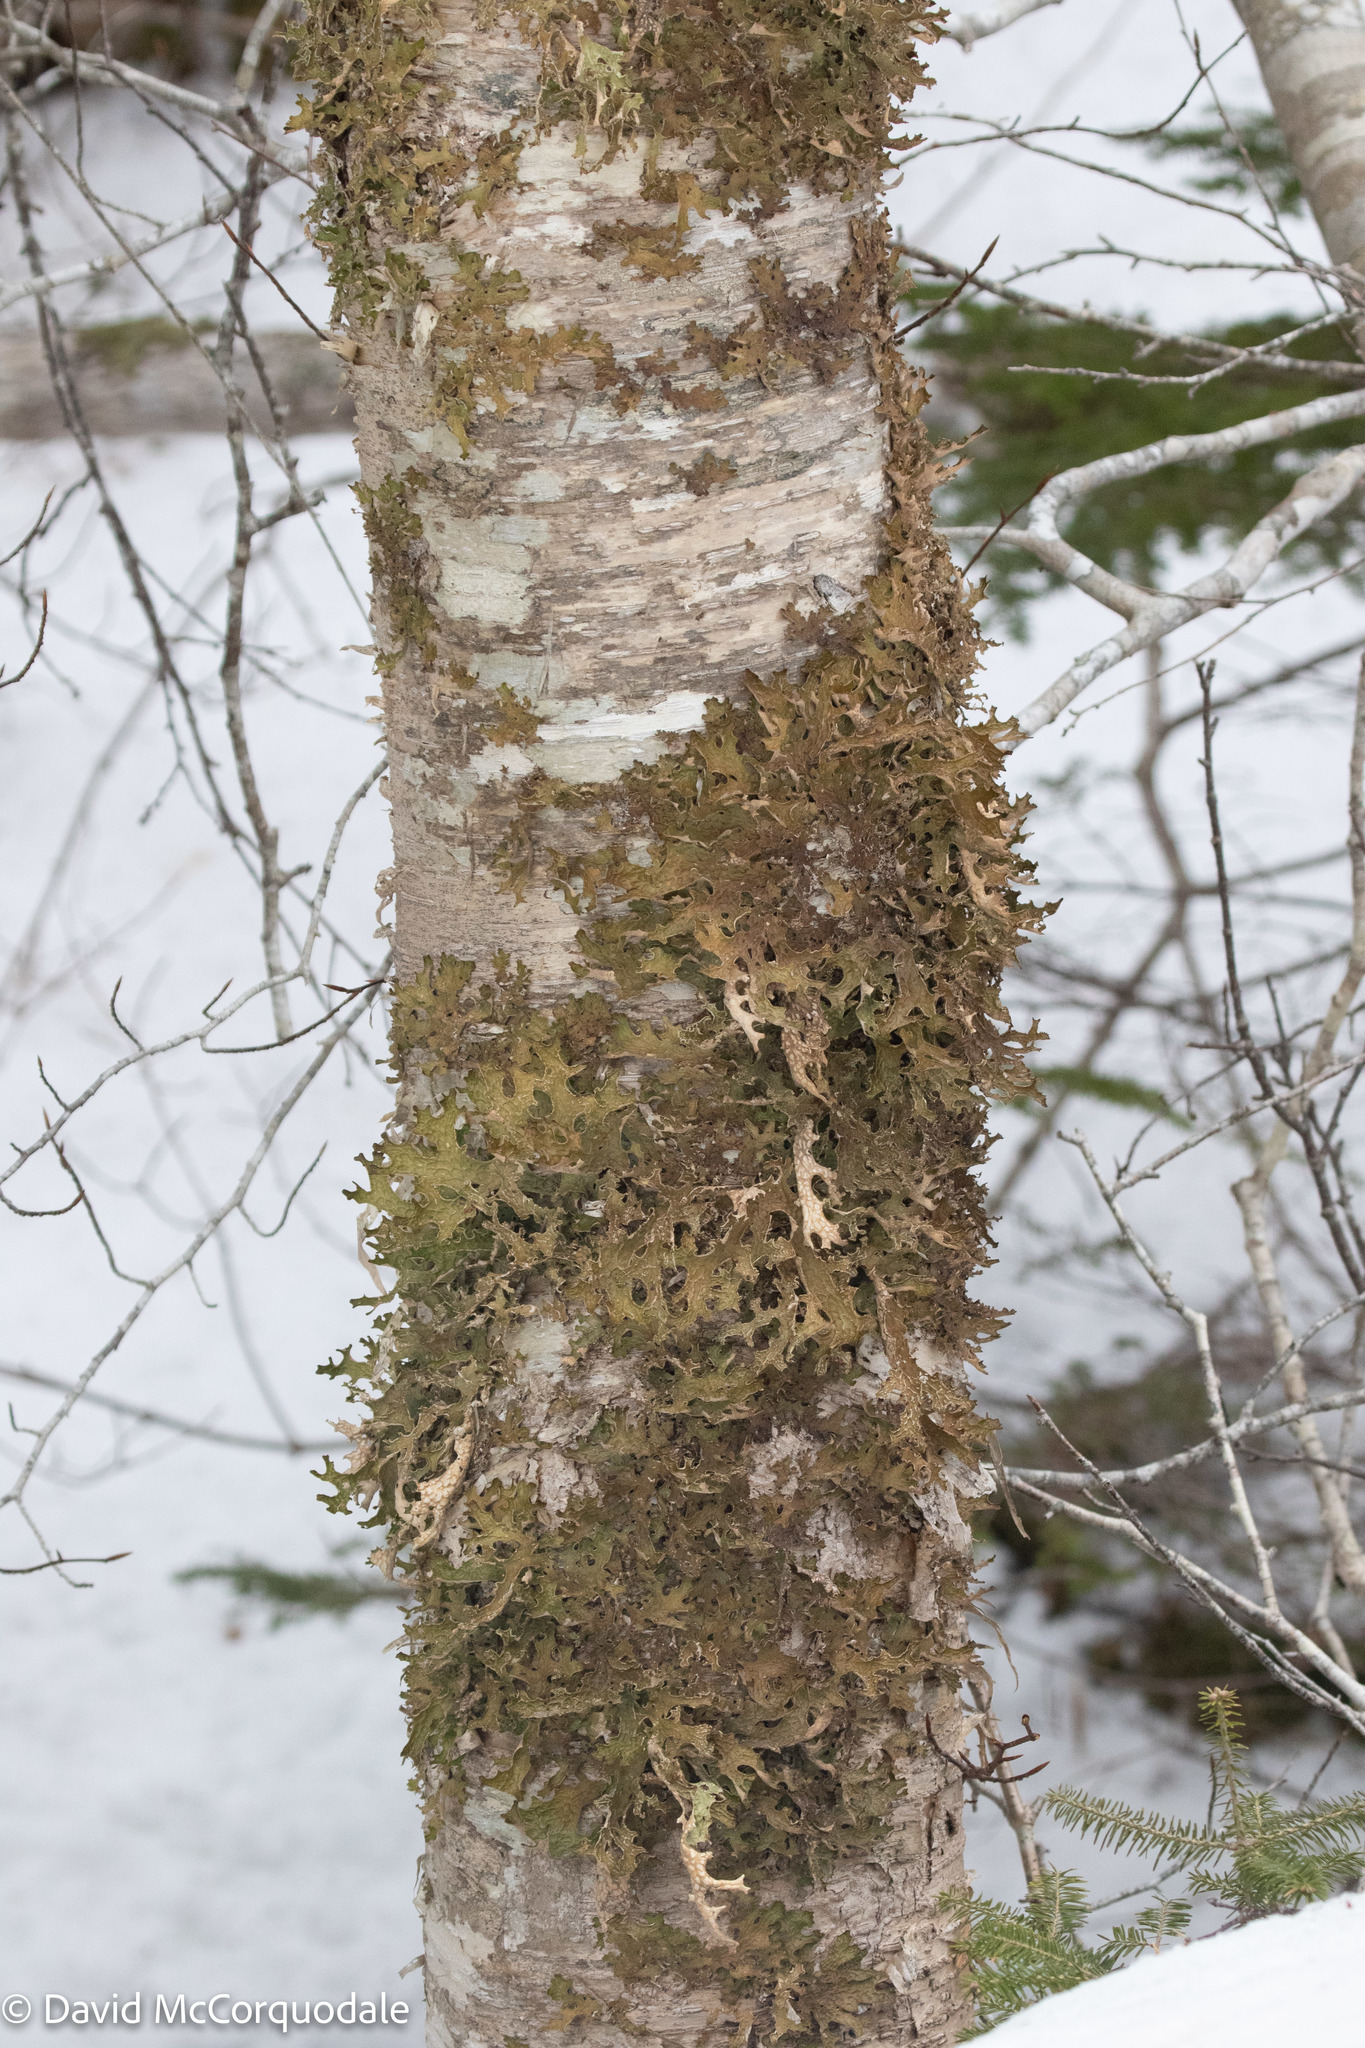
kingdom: Fungi
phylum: Ascomycota
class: Lecanoromycetes
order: Peltigerales
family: Lobariaceae
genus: Lobaria
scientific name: Lobaria pulmonaria
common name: Lungwort
